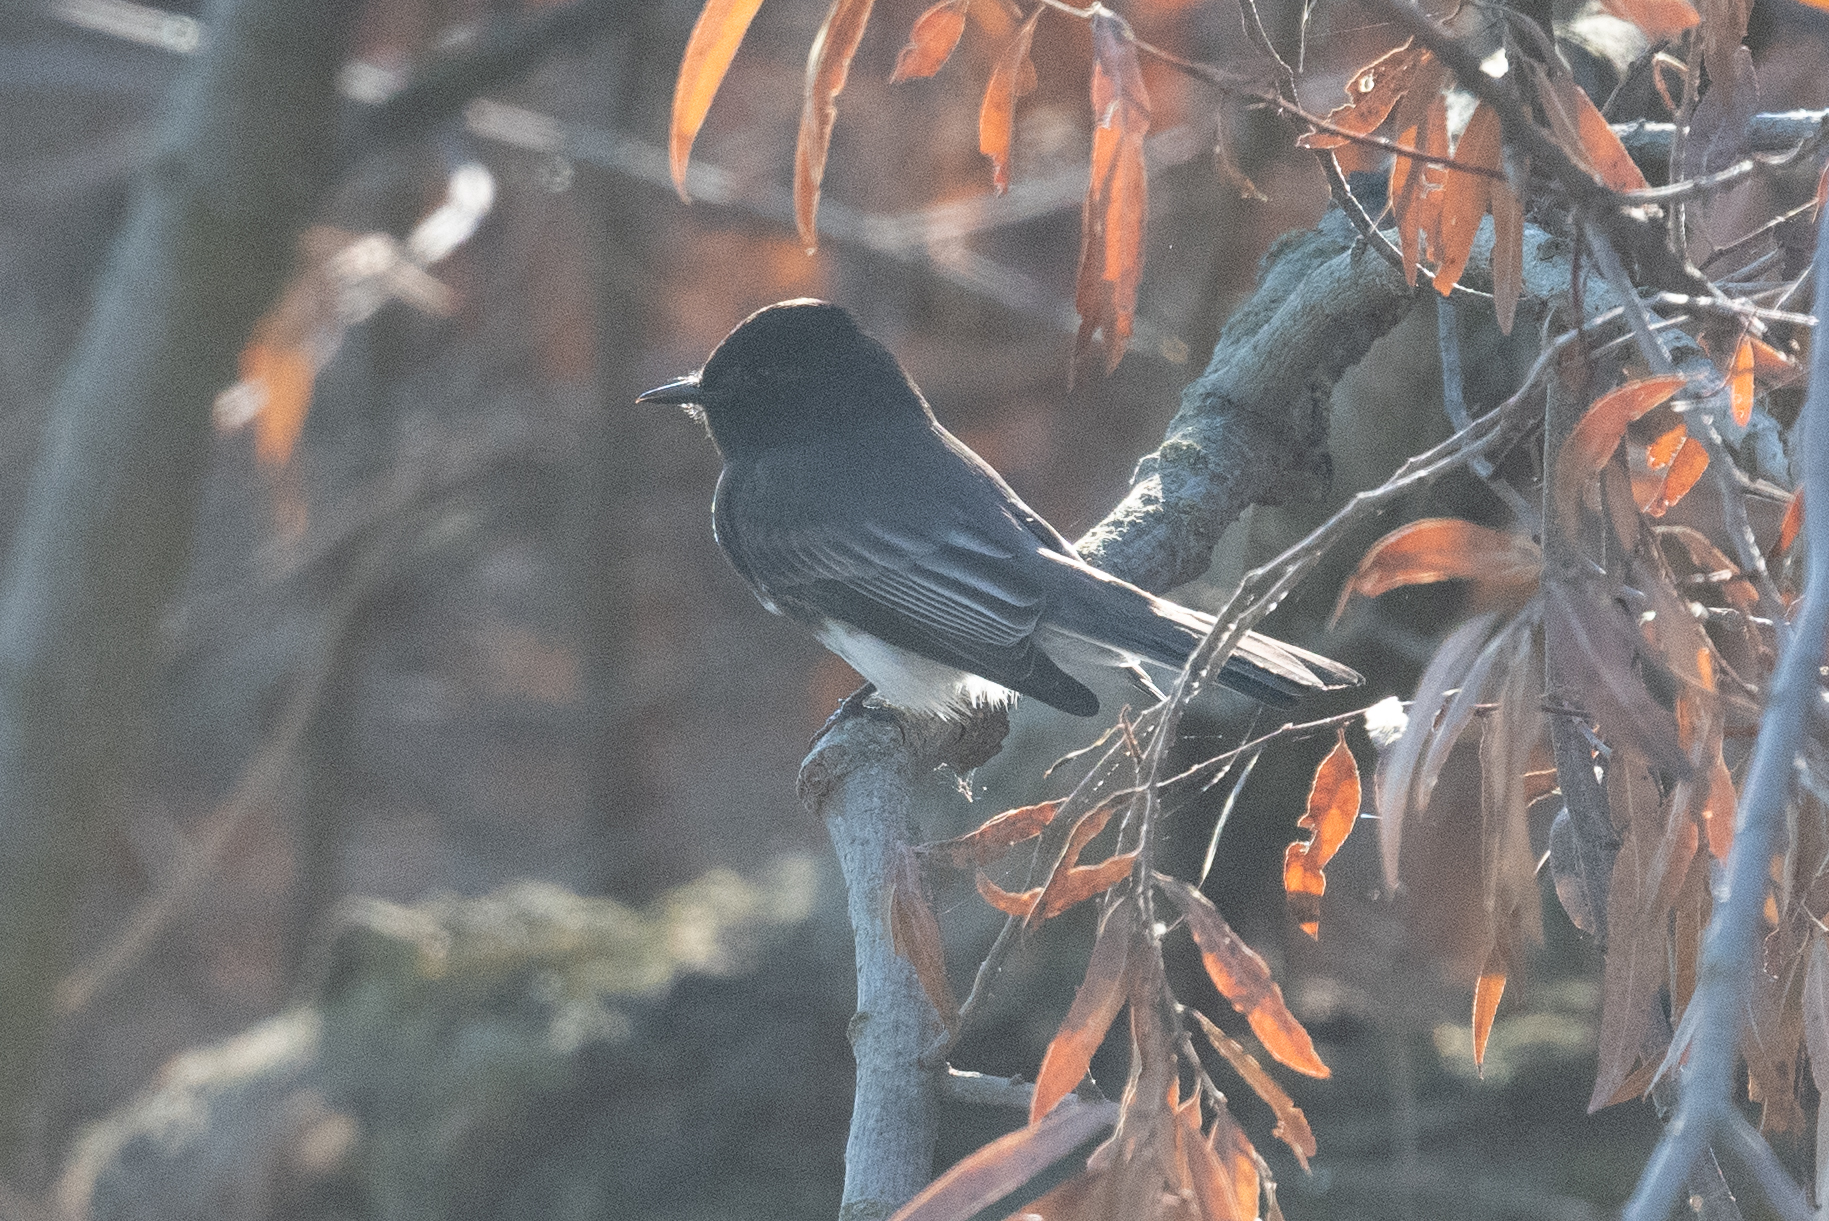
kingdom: Animalia
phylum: Chordata
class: Aves
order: Passeriformes
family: Tyrannidae
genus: Sayornis
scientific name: Sayornis nigricans
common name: Black phoebe
